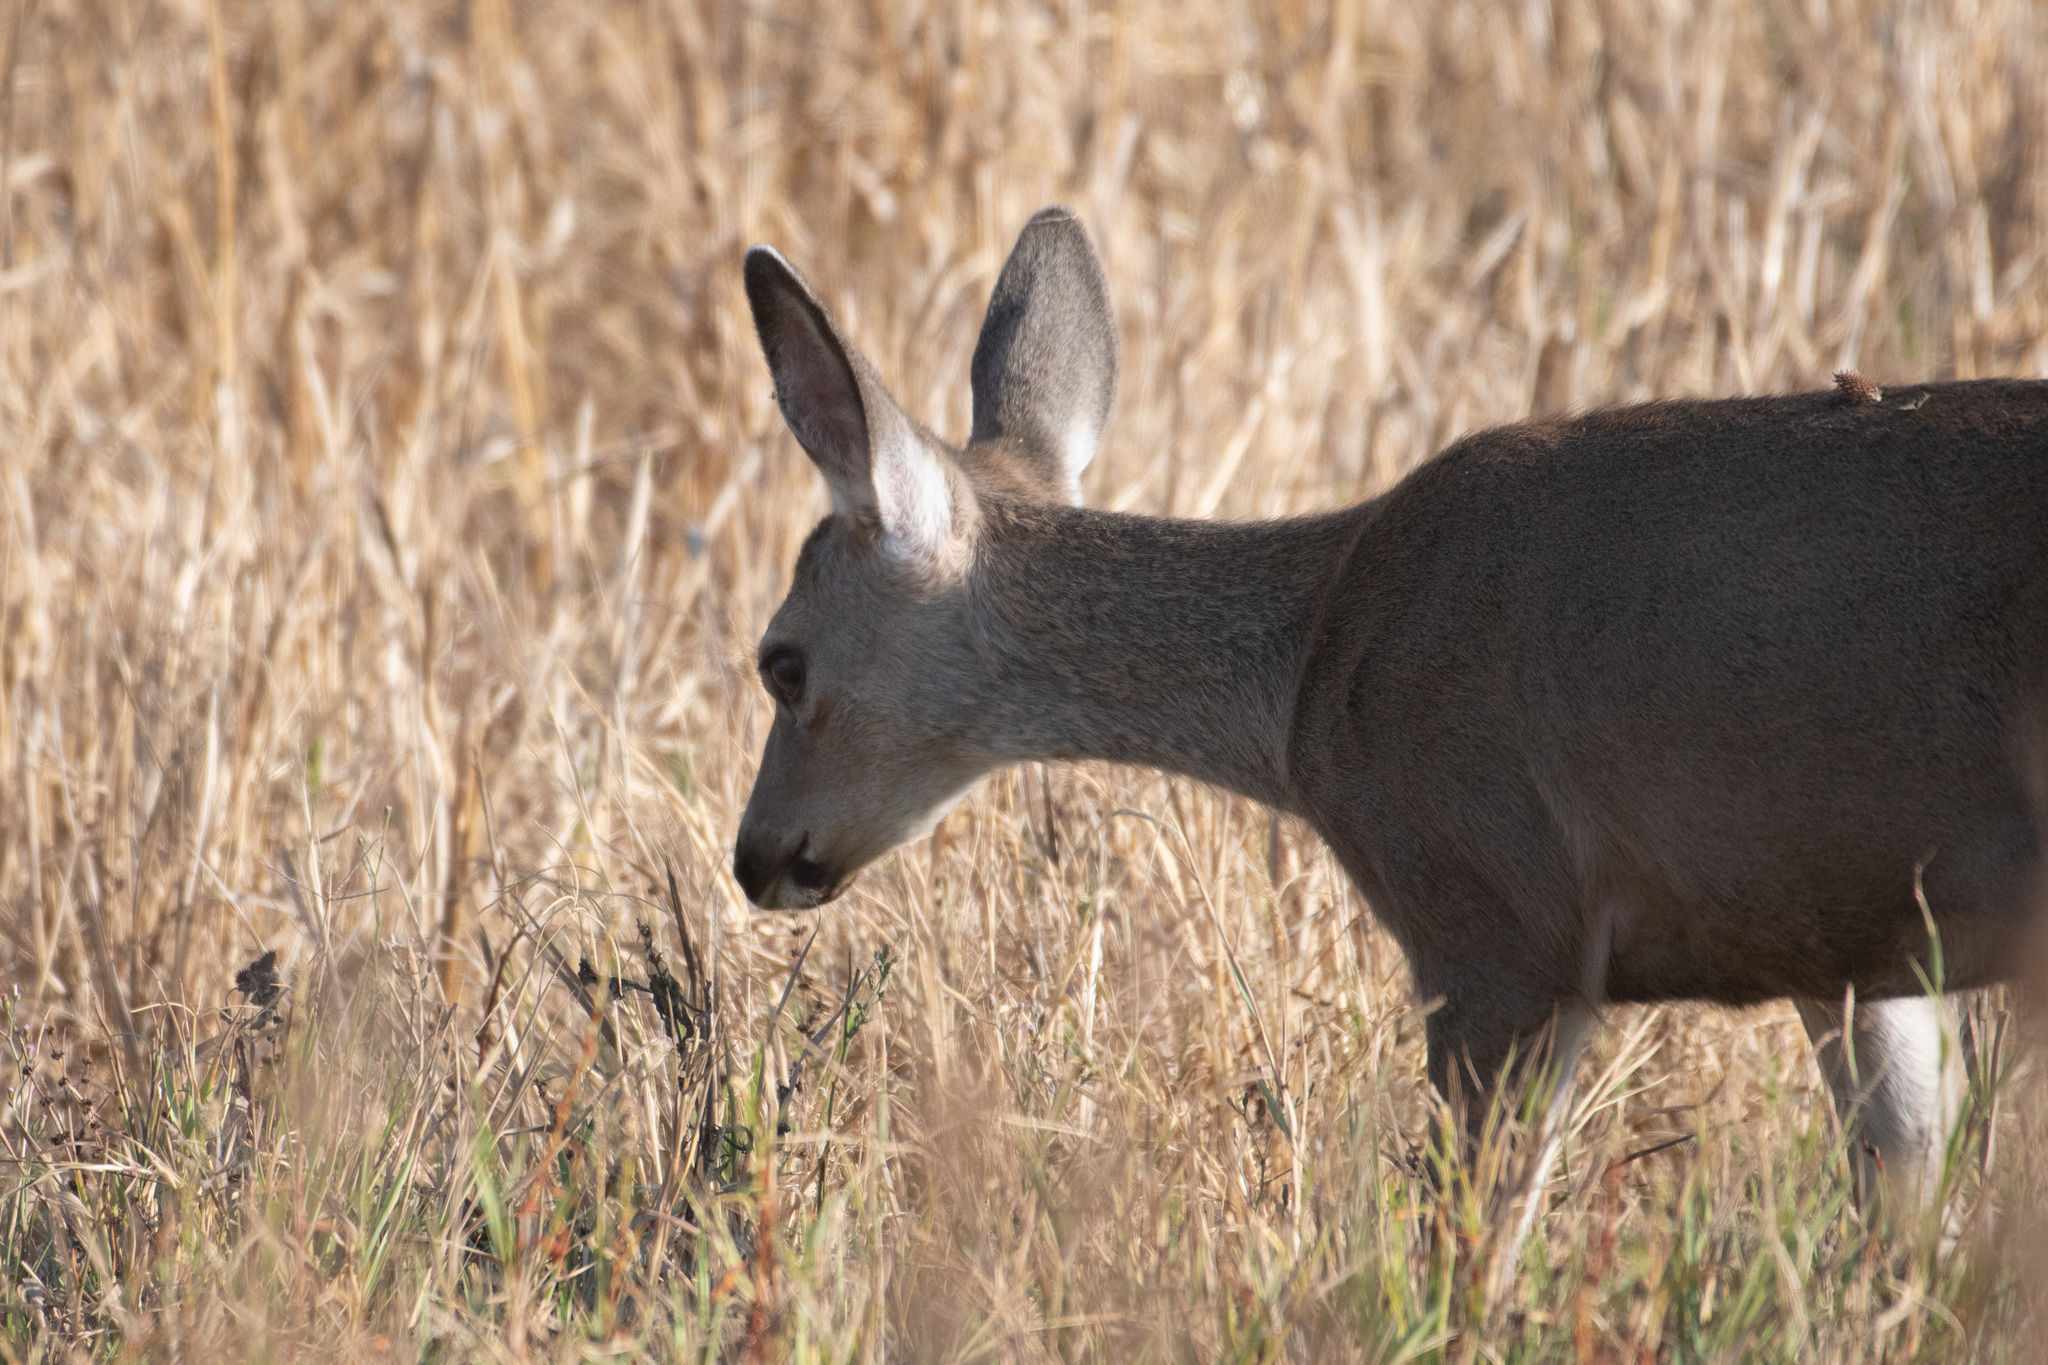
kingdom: Animalia
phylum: Chordata
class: Mammalia
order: Artiodactyla
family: Cervidae
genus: Odocoileus
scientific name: Odocoileus hemionus
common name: Mule deer
